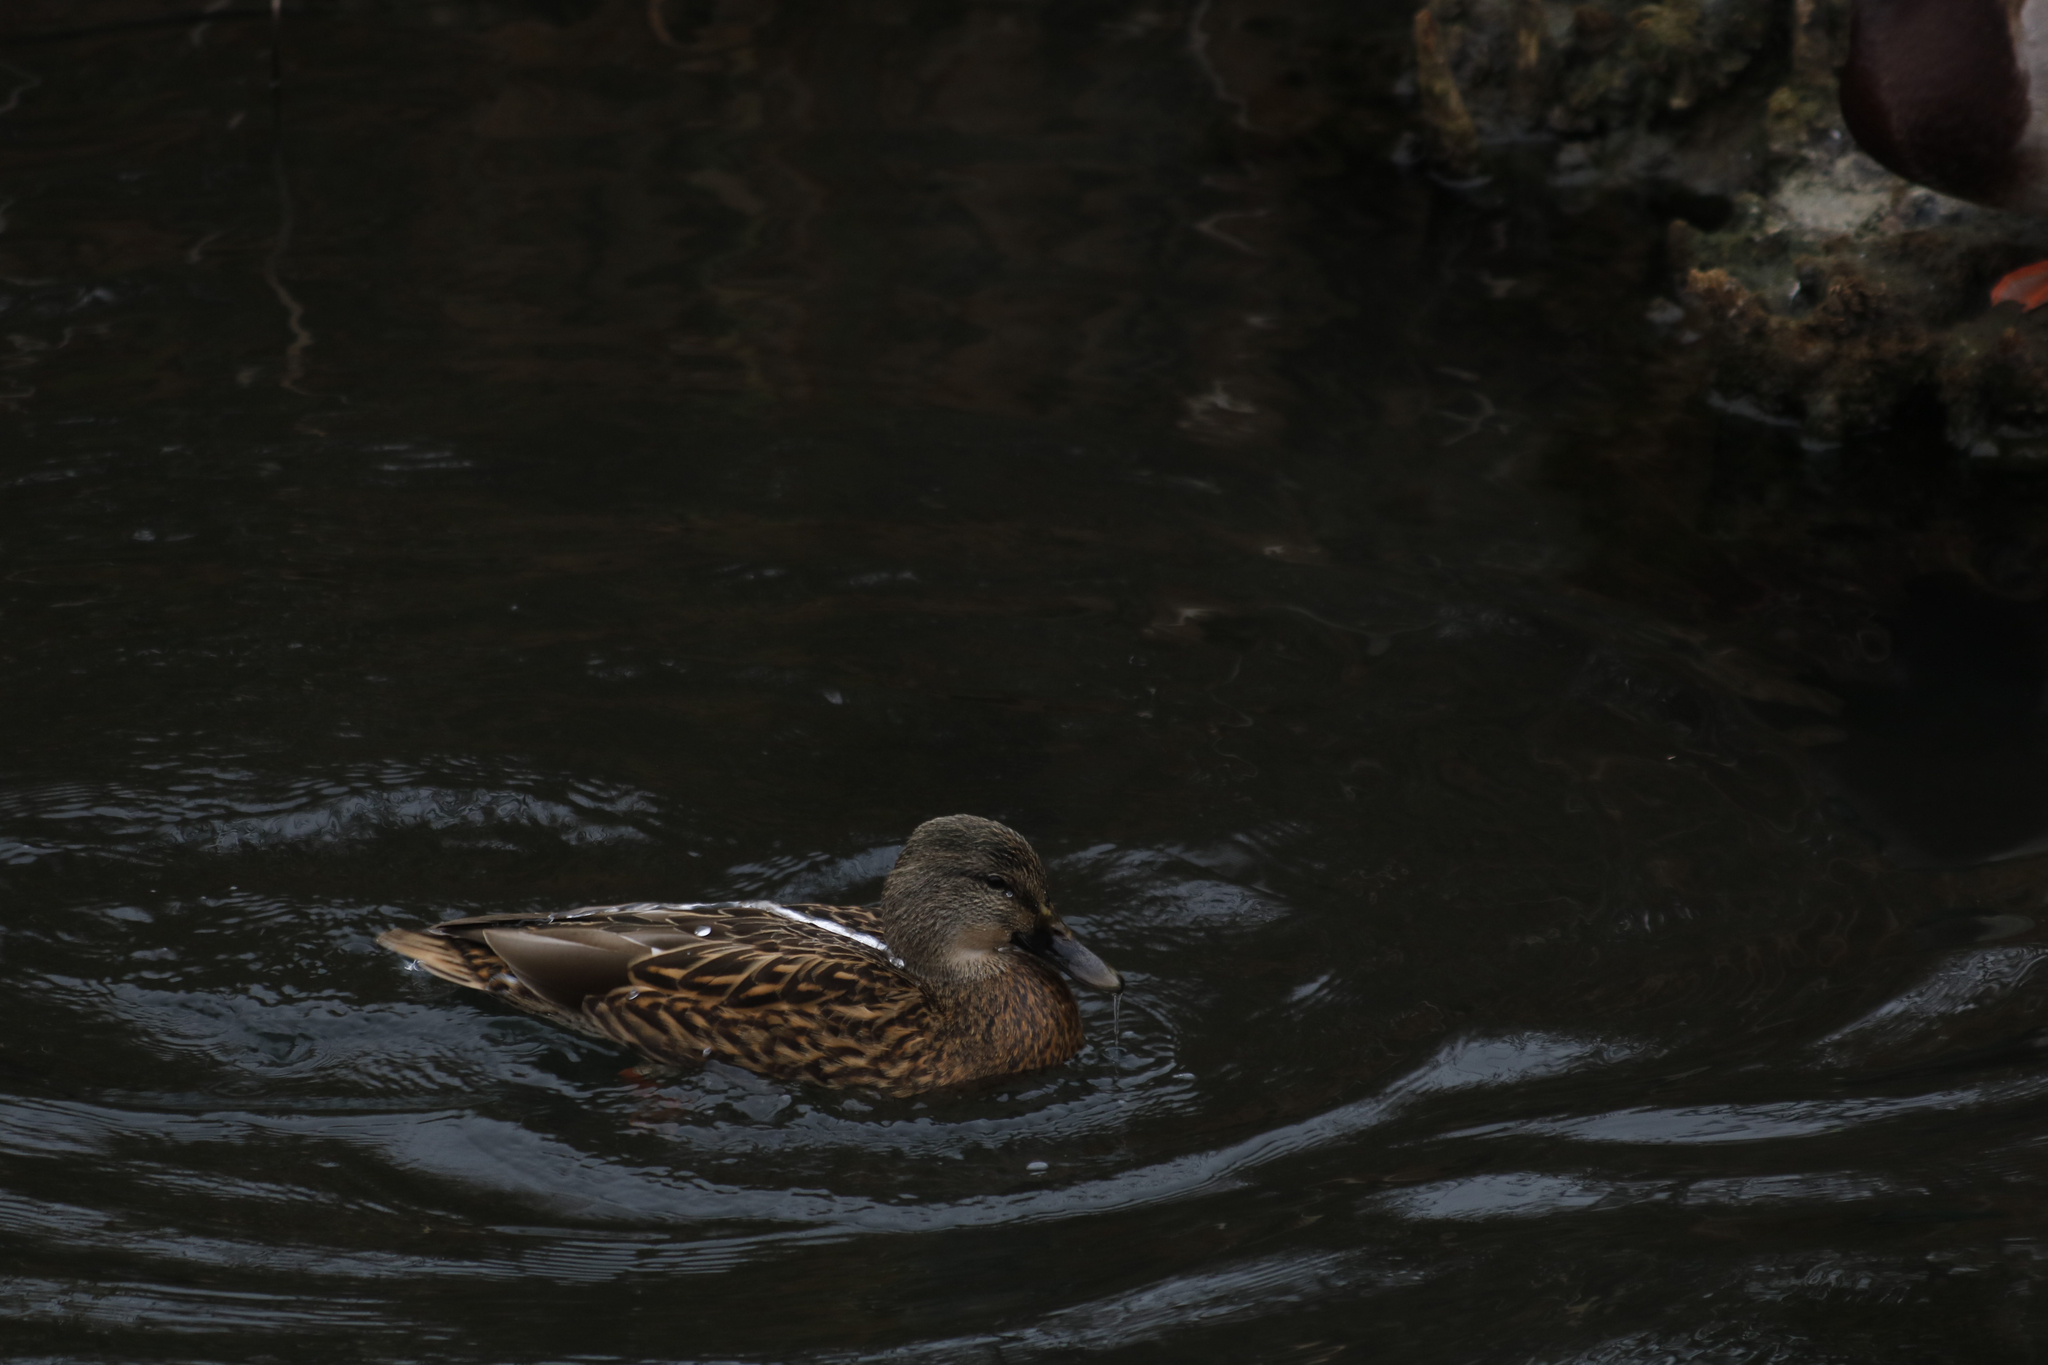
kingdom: Animalia
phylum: Chordata
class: Aves
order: Anseriformes
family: Anatidae
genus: Anas
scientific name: Anas platyrhynchos
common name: Mallard
